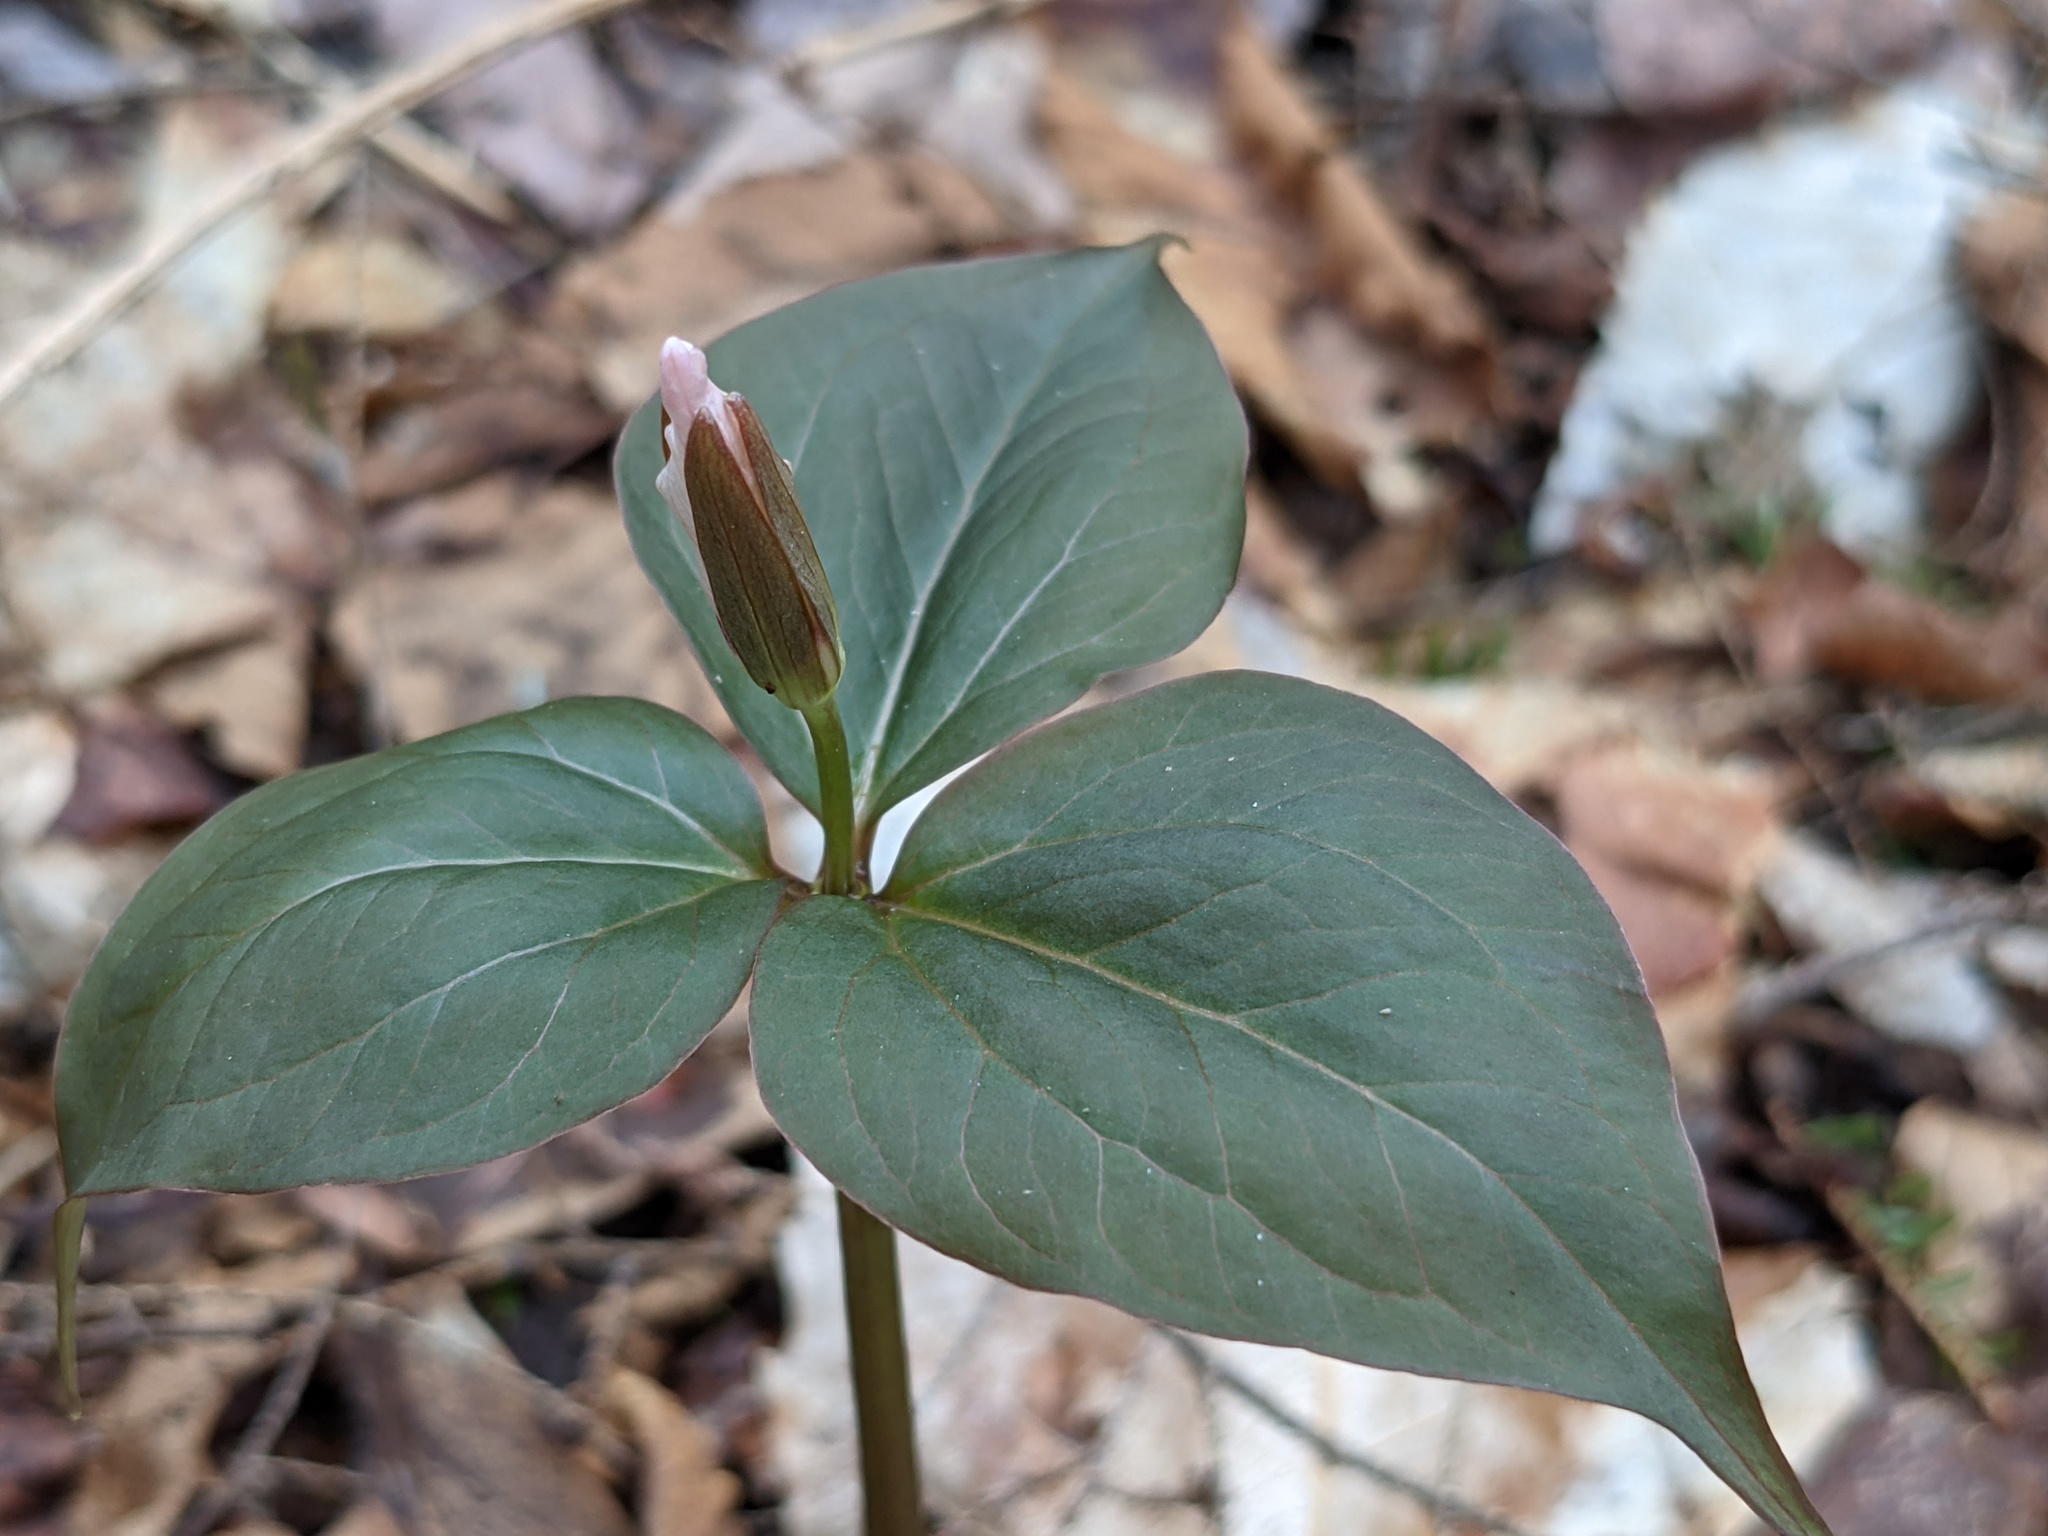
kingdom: Plantae
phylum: Tracheophyta
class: Liliopsida
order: Liliales
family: Melanthiaceae
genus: Trillium
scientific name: Trillium undulatum
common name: Paint trillium
